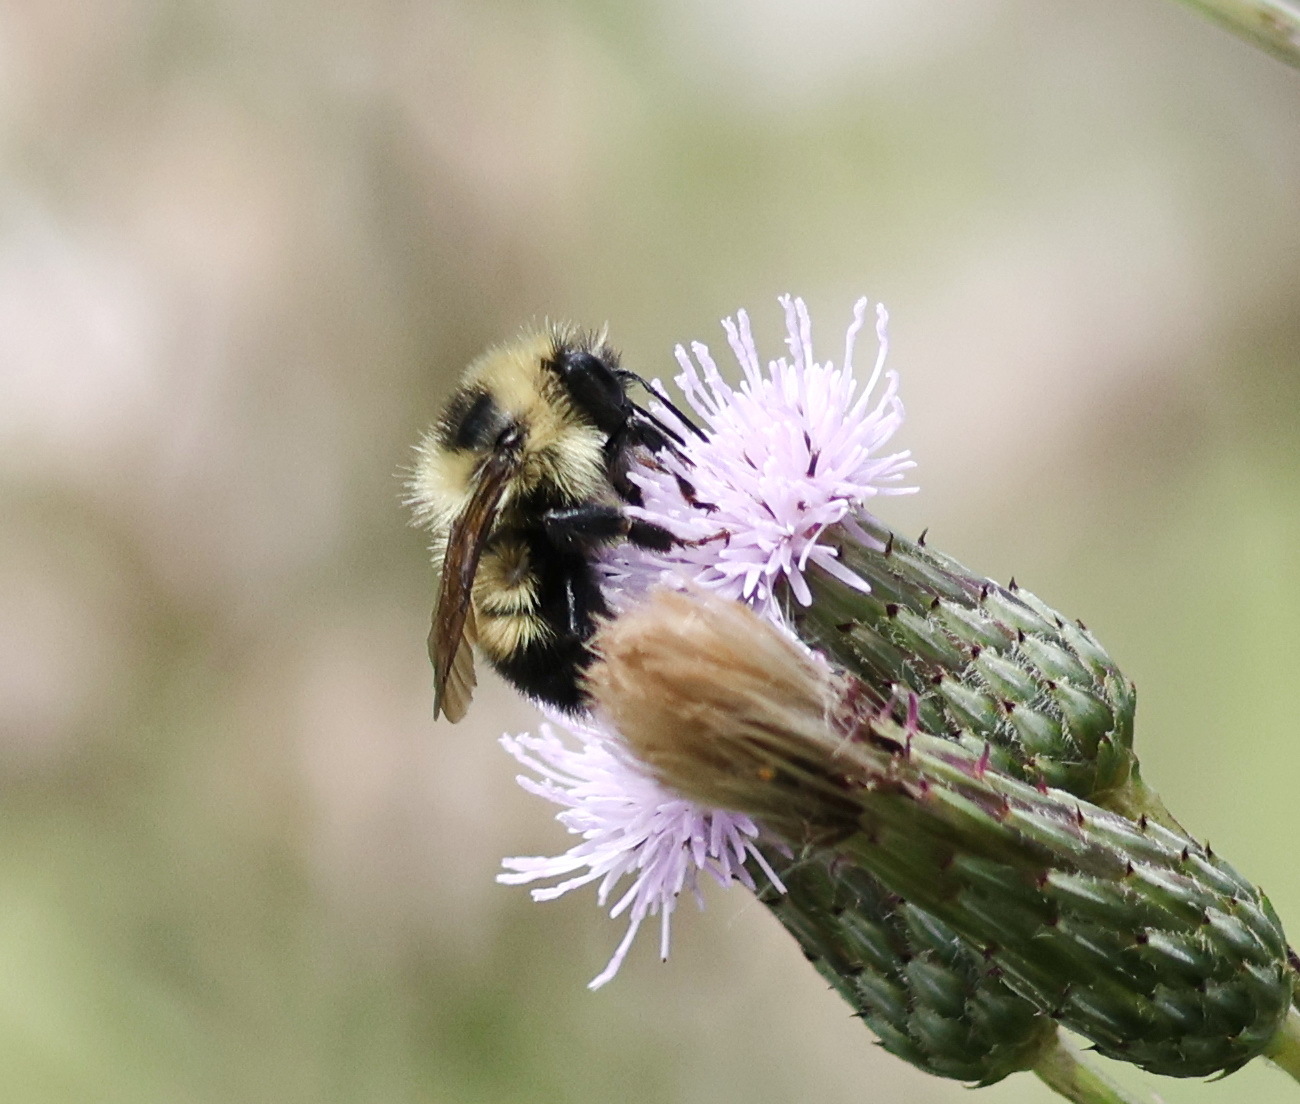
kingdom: Animalia
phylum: Arthropoda
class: Insecta
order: Hymenoptera
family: Apidae
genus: Bombus
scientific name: Bombus rufocinctus
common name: Red-belted bumble bee
